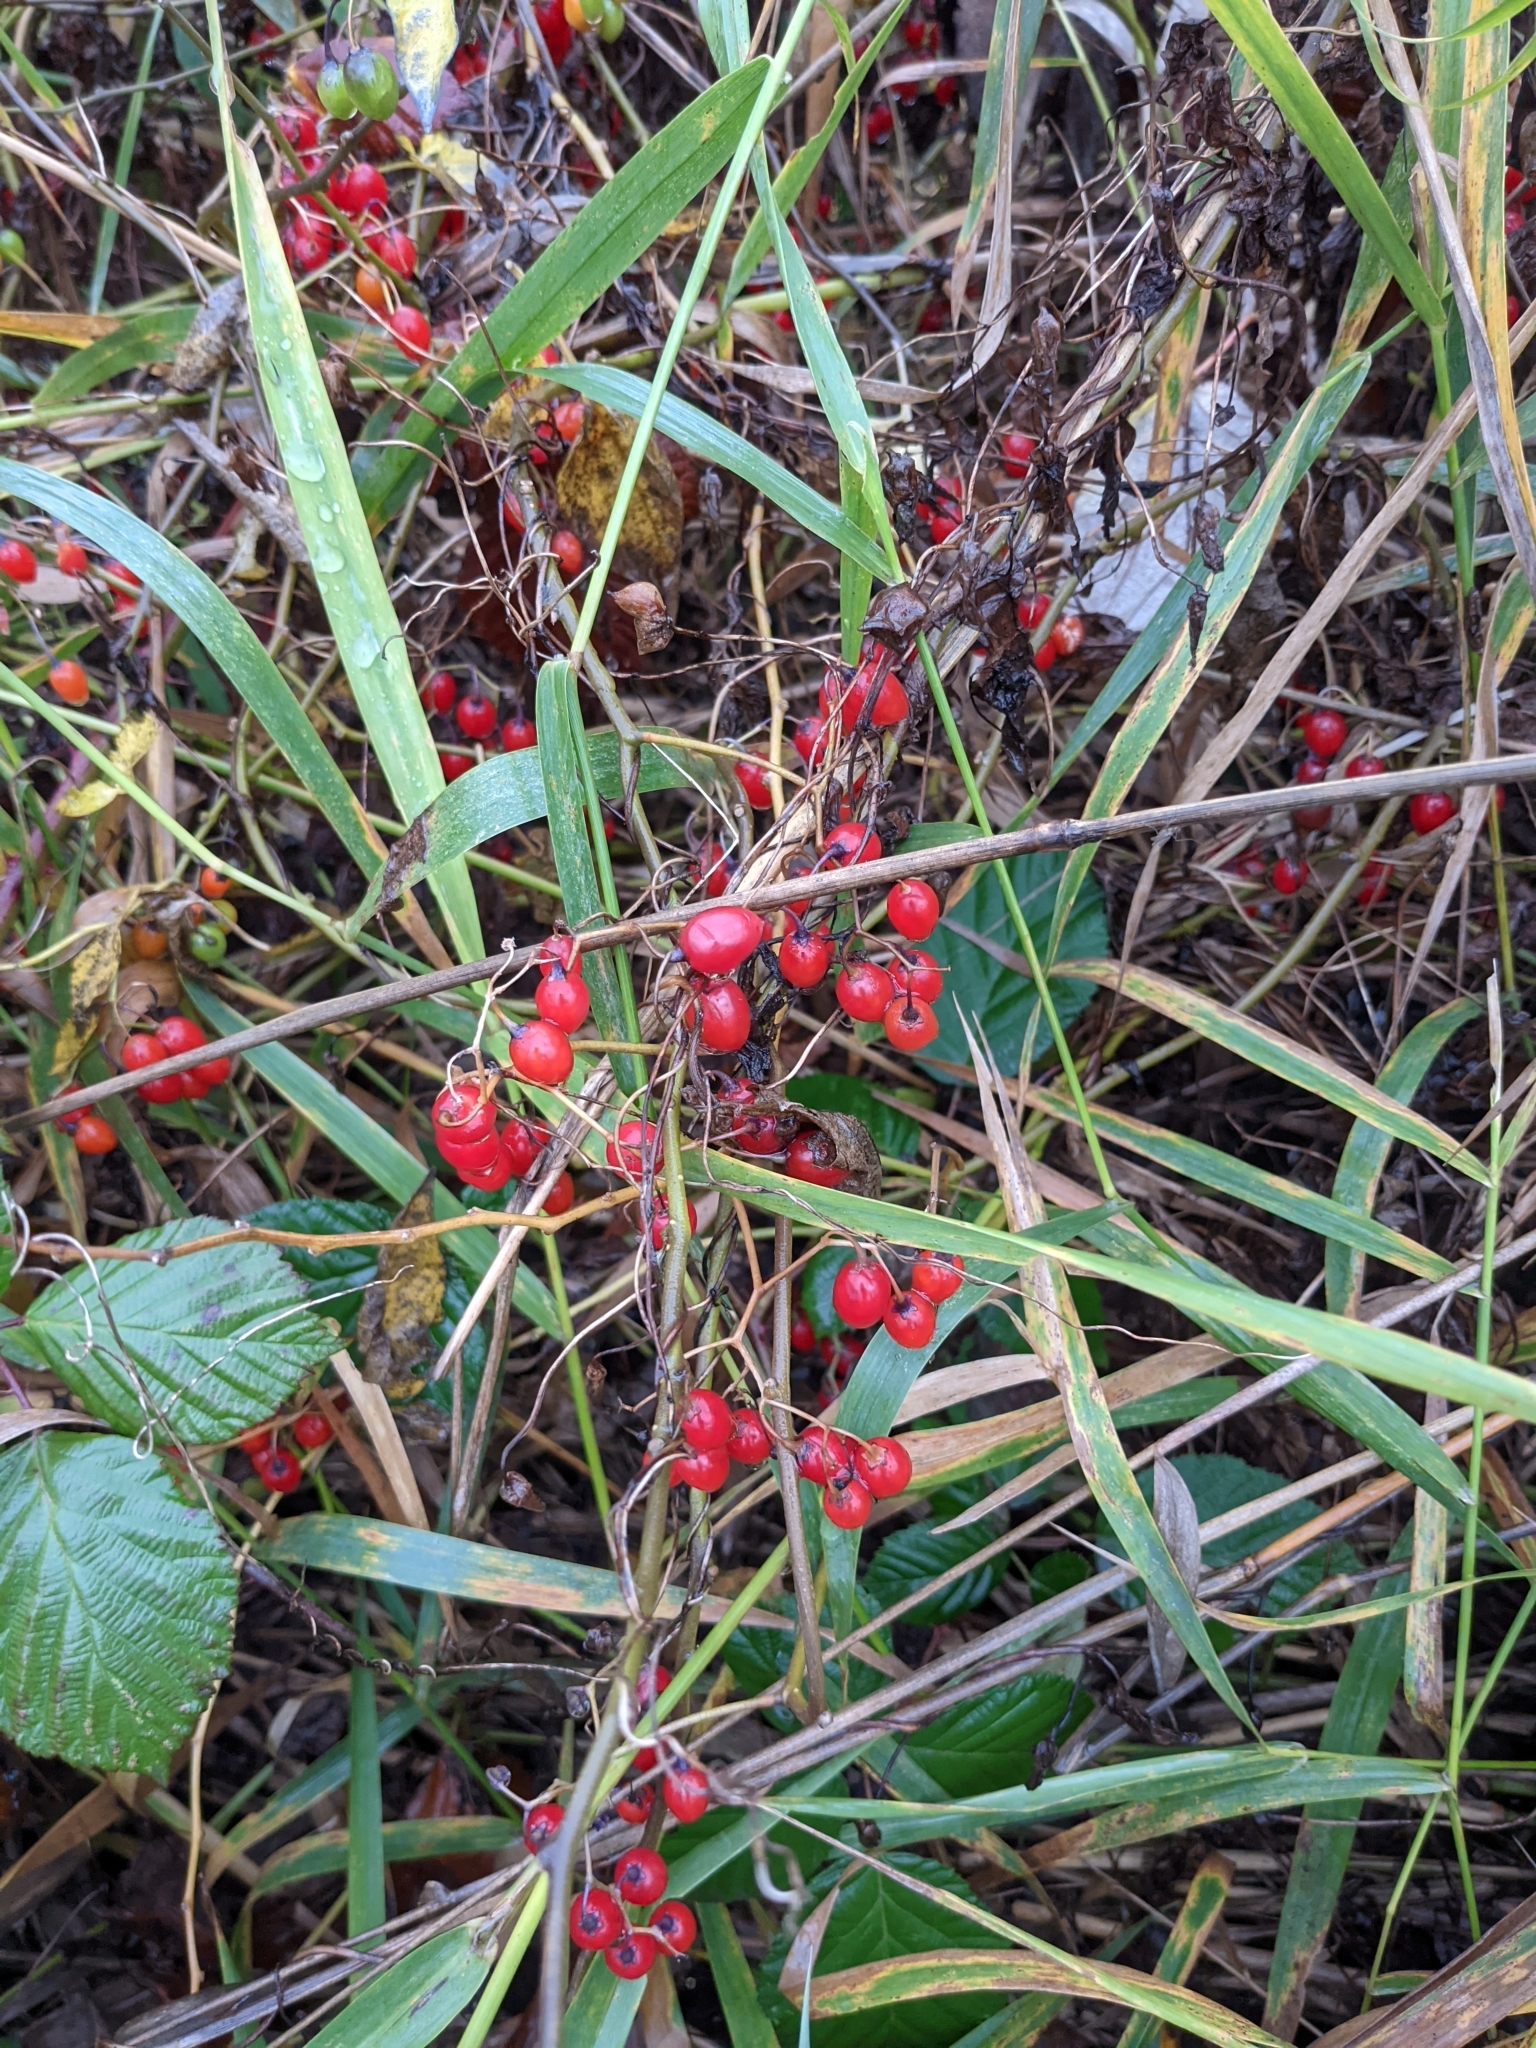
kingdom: Plantae
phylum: Tracheophyta
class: Magnoliopsida
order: Solanales
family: Solanaceae
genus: Solanum
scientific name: Solanum dulcamara
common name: Climbing nightshade
